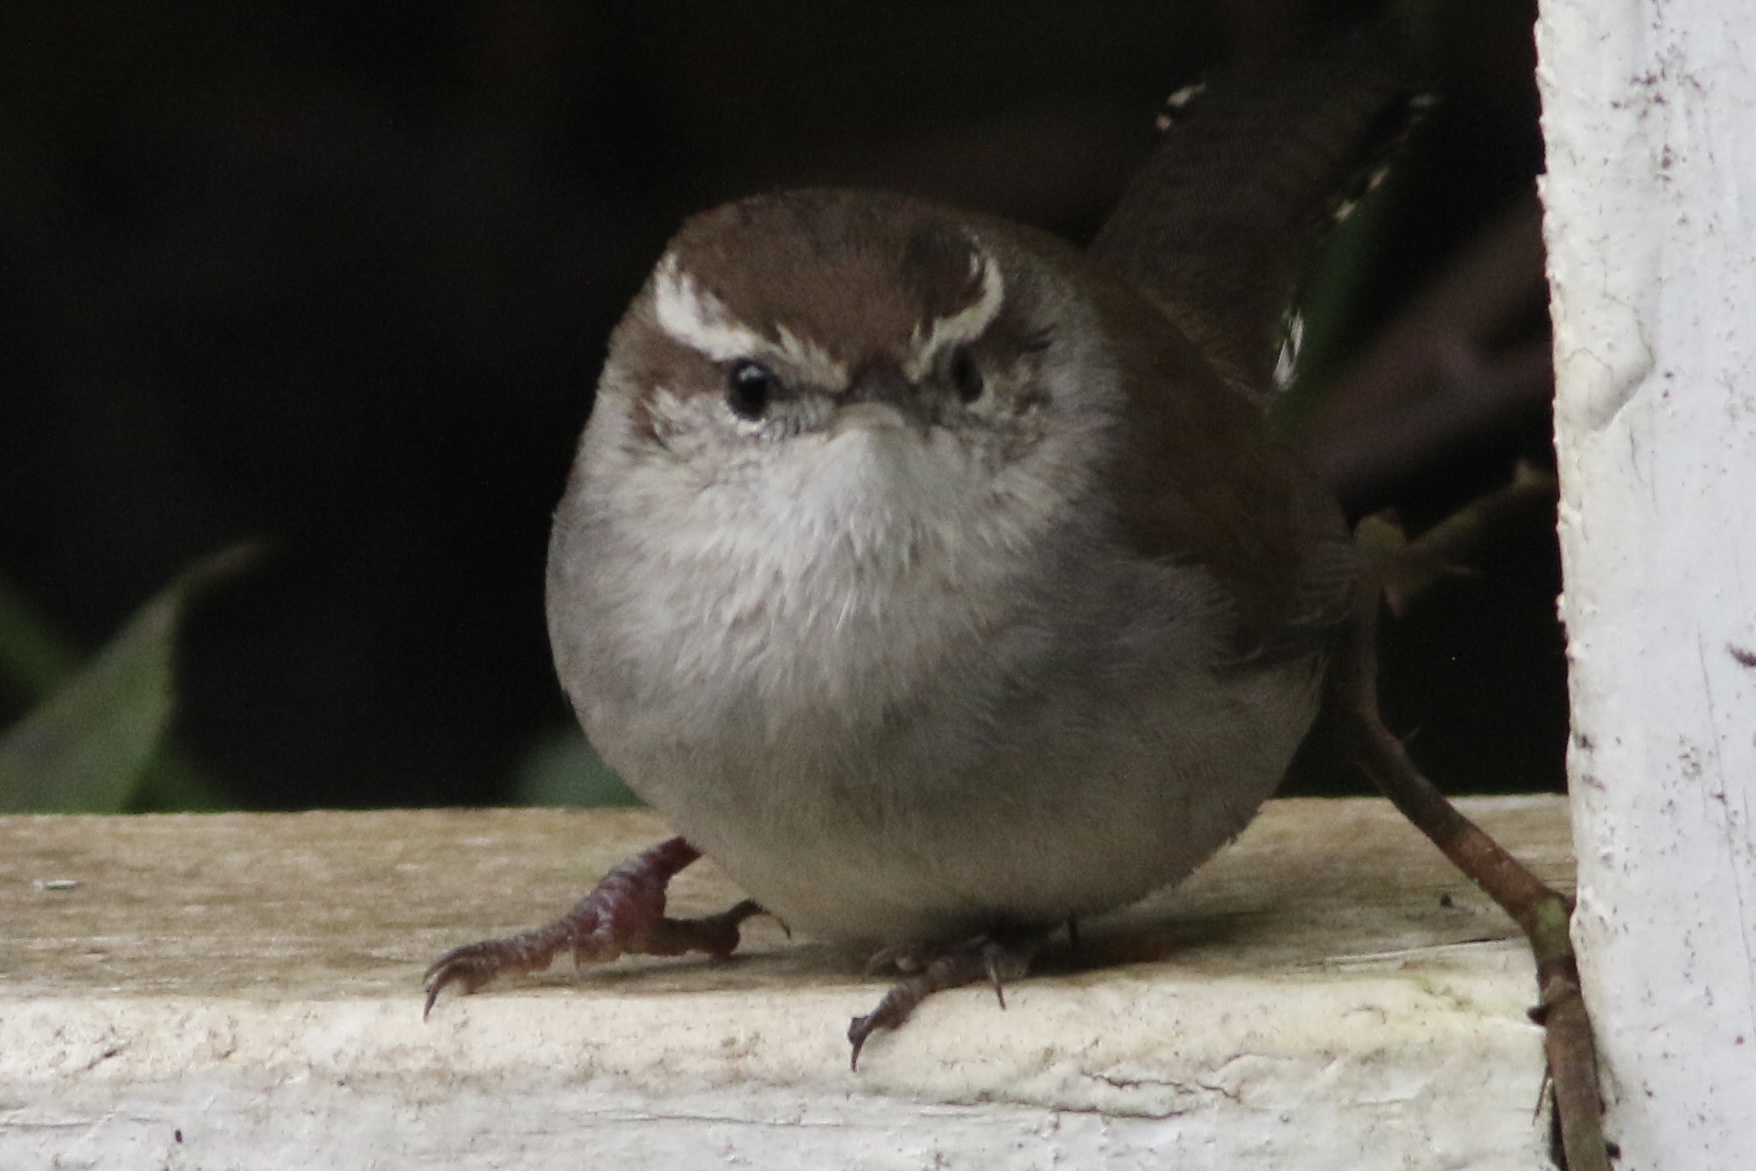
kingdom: Animalia
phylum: Chordata
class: Aves
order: Passeriformes
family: Troglodytidae
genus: Thryomanes
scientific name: Thryomanes bewickii
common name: Bewick's wren
